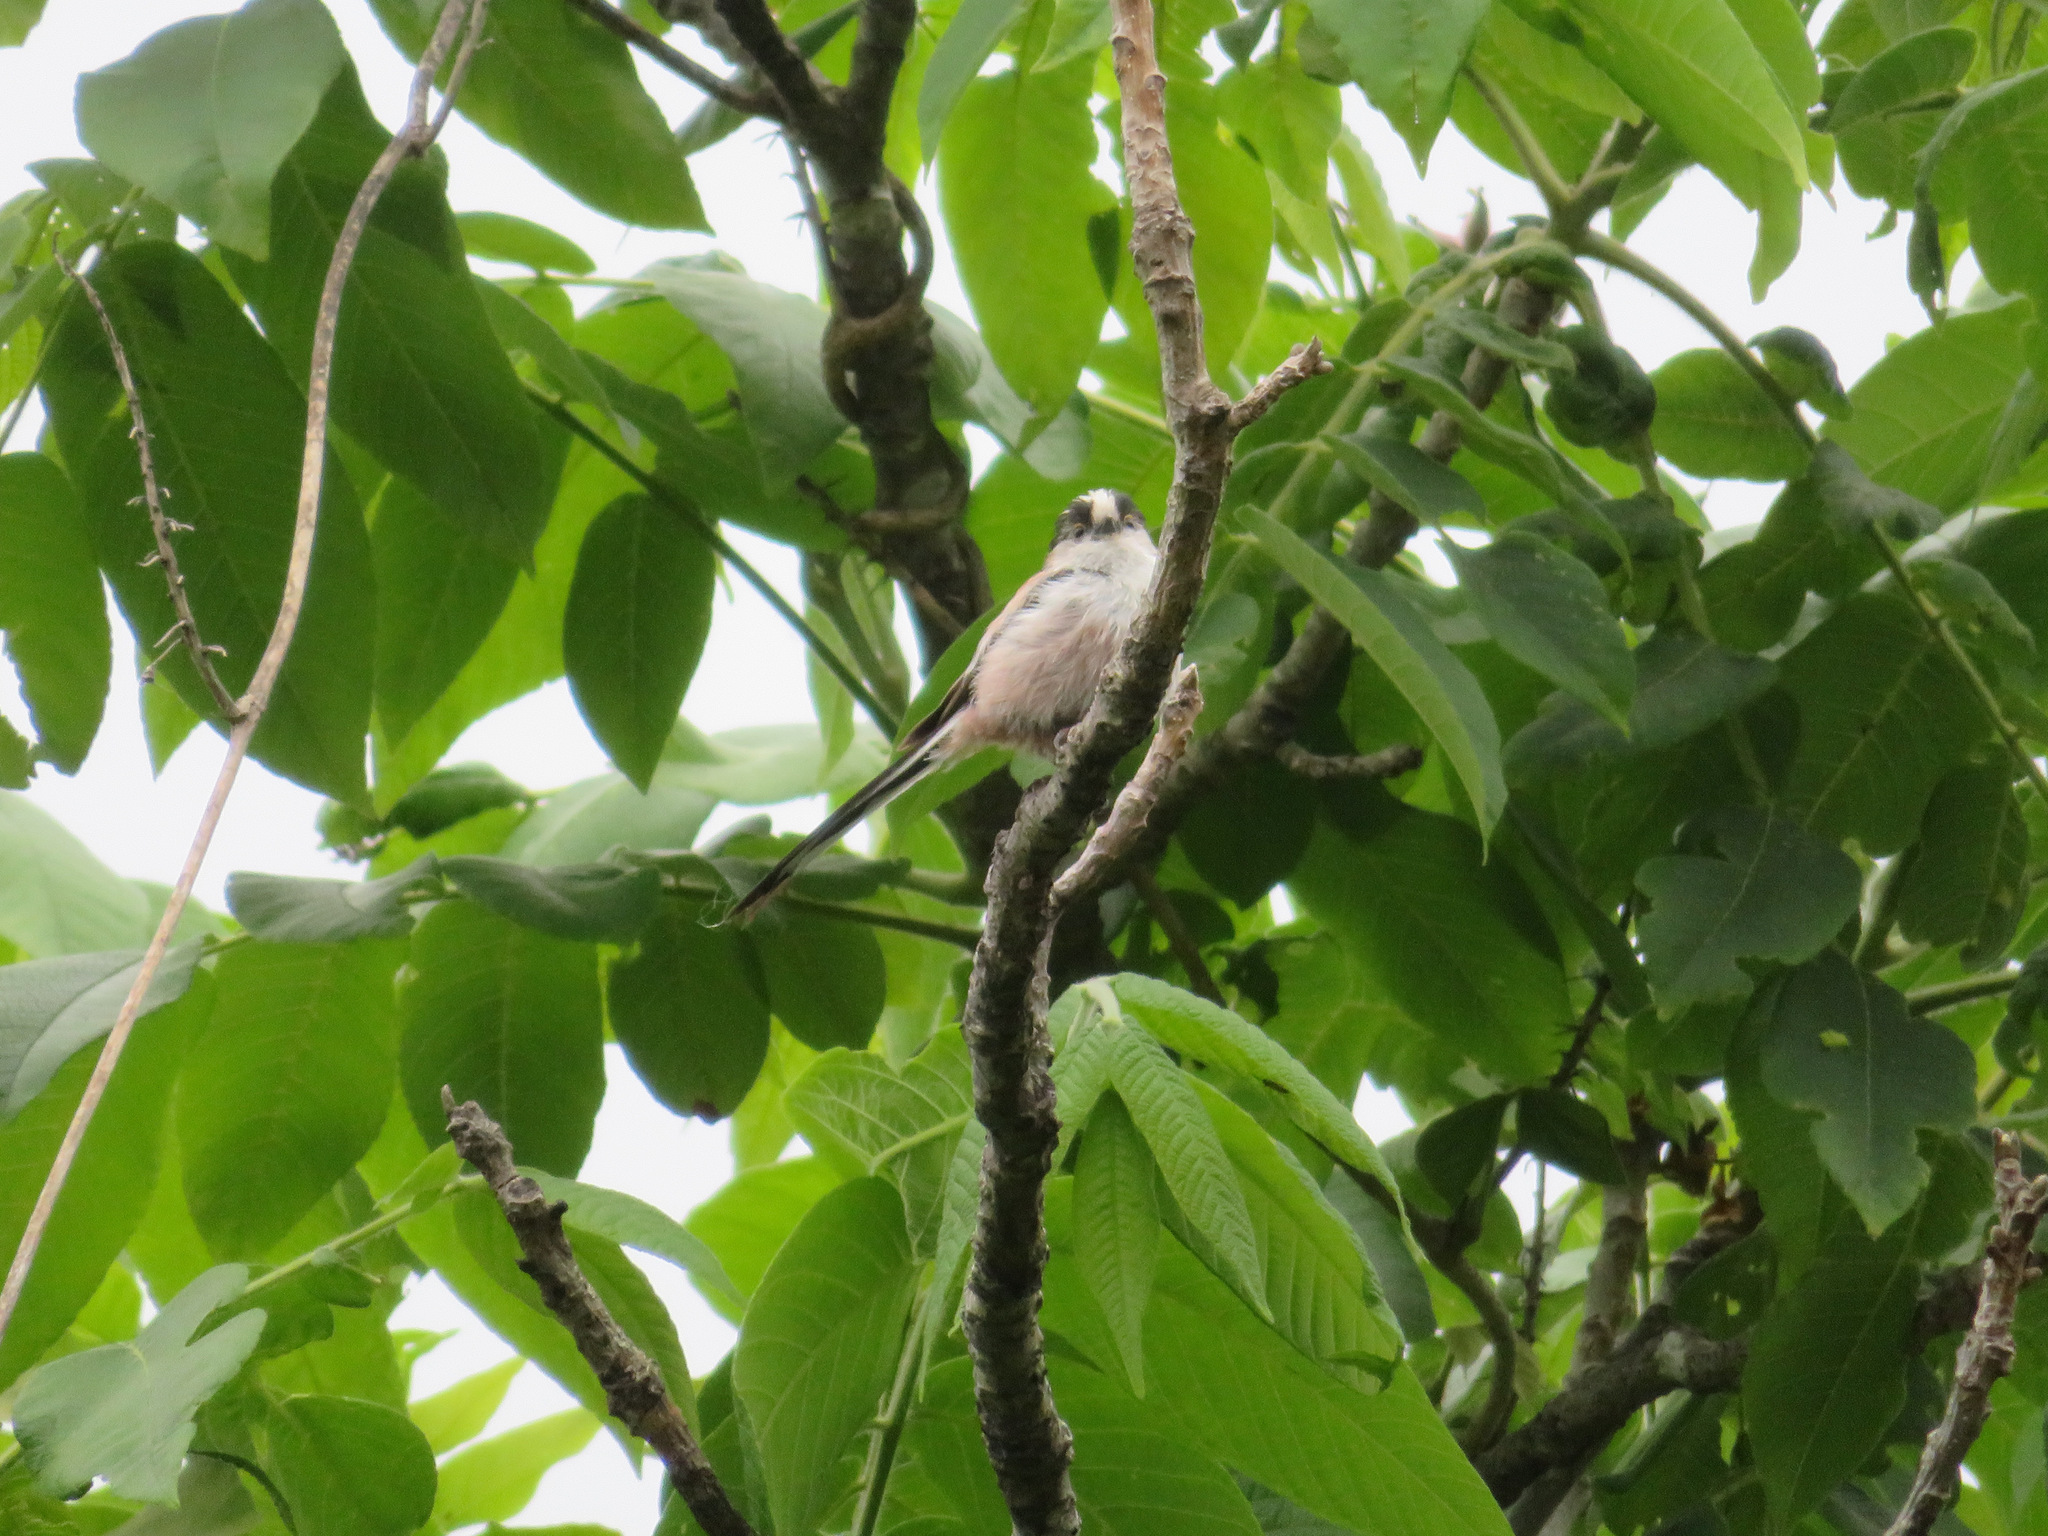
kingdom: Animalia
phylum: Chordata
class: Aves
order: Passeriformes
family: Aegithalidae
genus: Aegithalos
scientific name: Aegithalos caudatus
